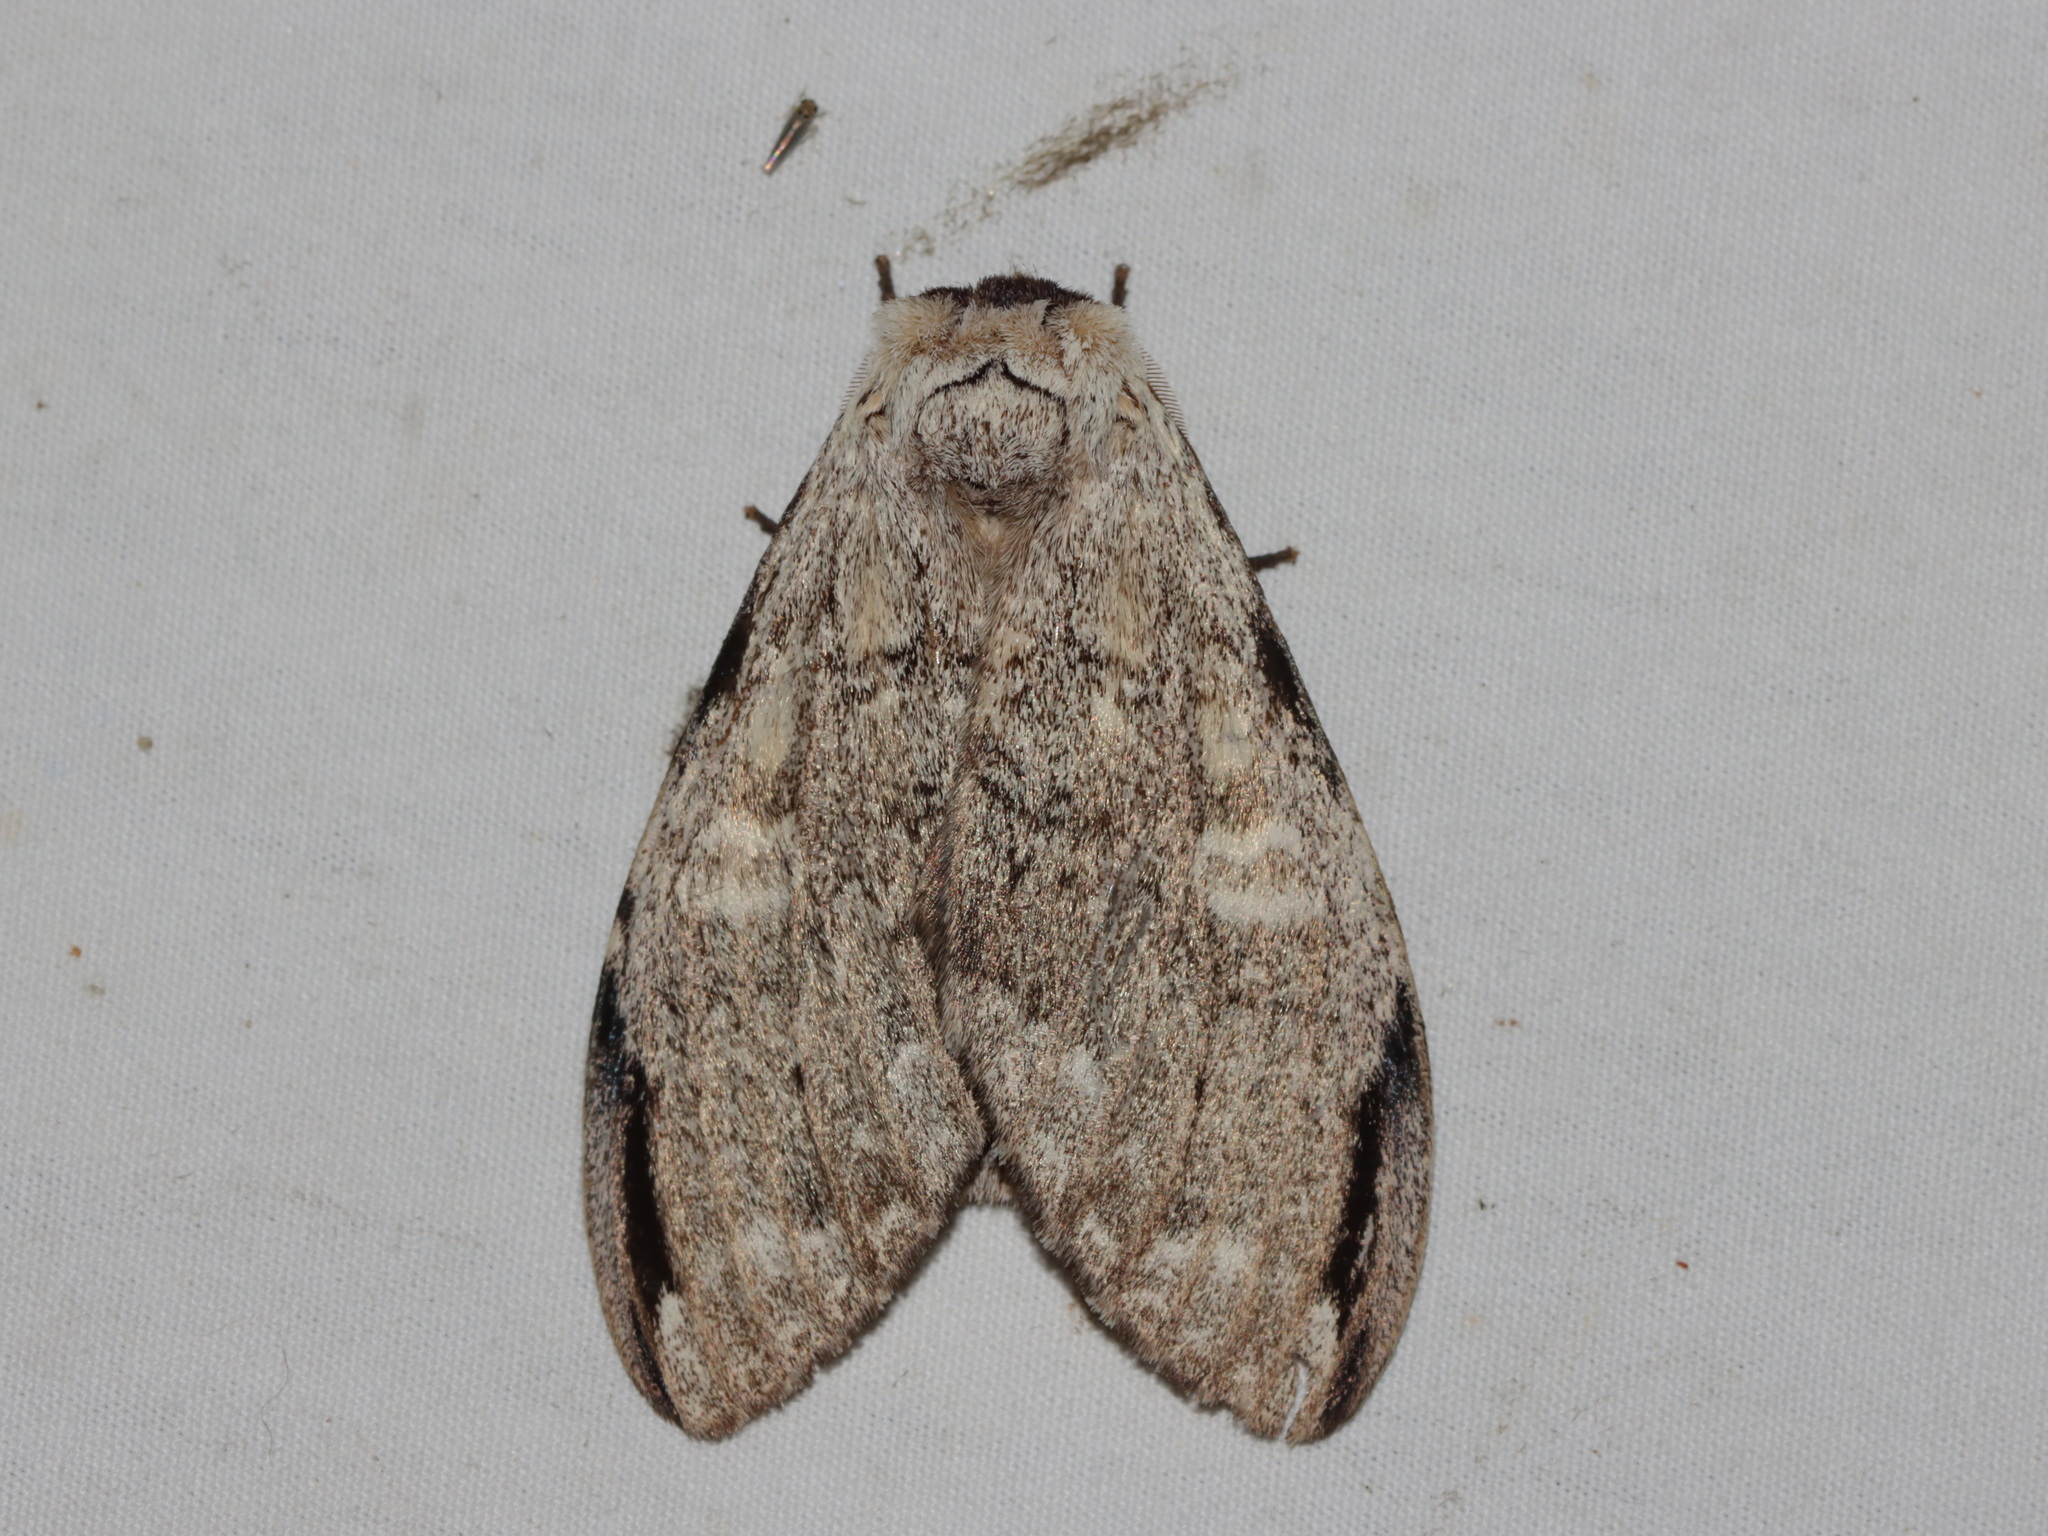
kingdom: Animalia
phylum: Arthropoda
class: Insecta
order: Lepidoptera
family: Notodontidae
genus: Stauroplitis
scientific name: Stauroplitis accomodus
